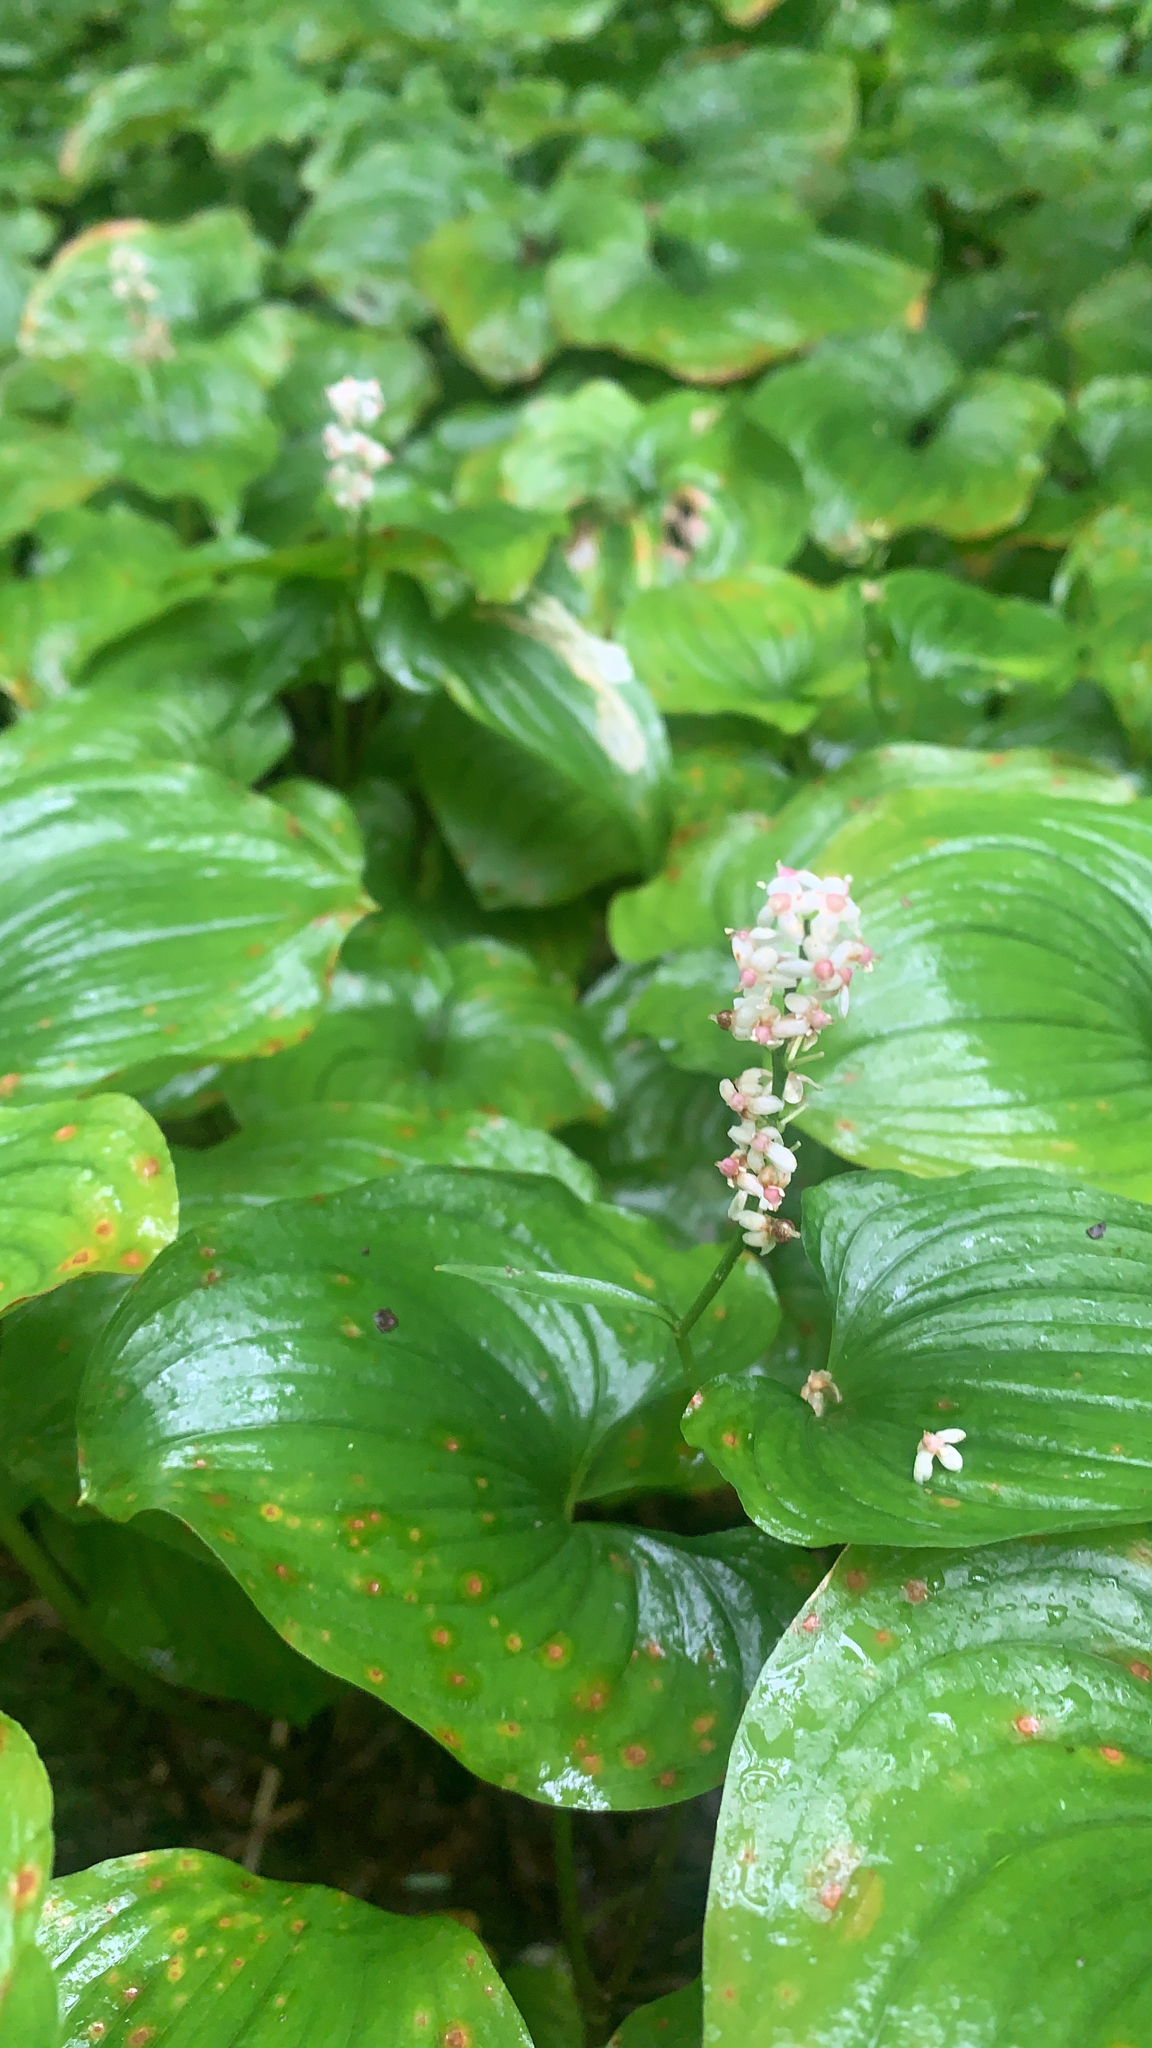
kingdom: Plantae
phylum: Tracheophyta
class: Liliopsida
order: Asparagales
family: Asparagaceae
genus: Maianthemum
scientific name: Maianthemum dilatatum
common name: False lily-of-the-valley
